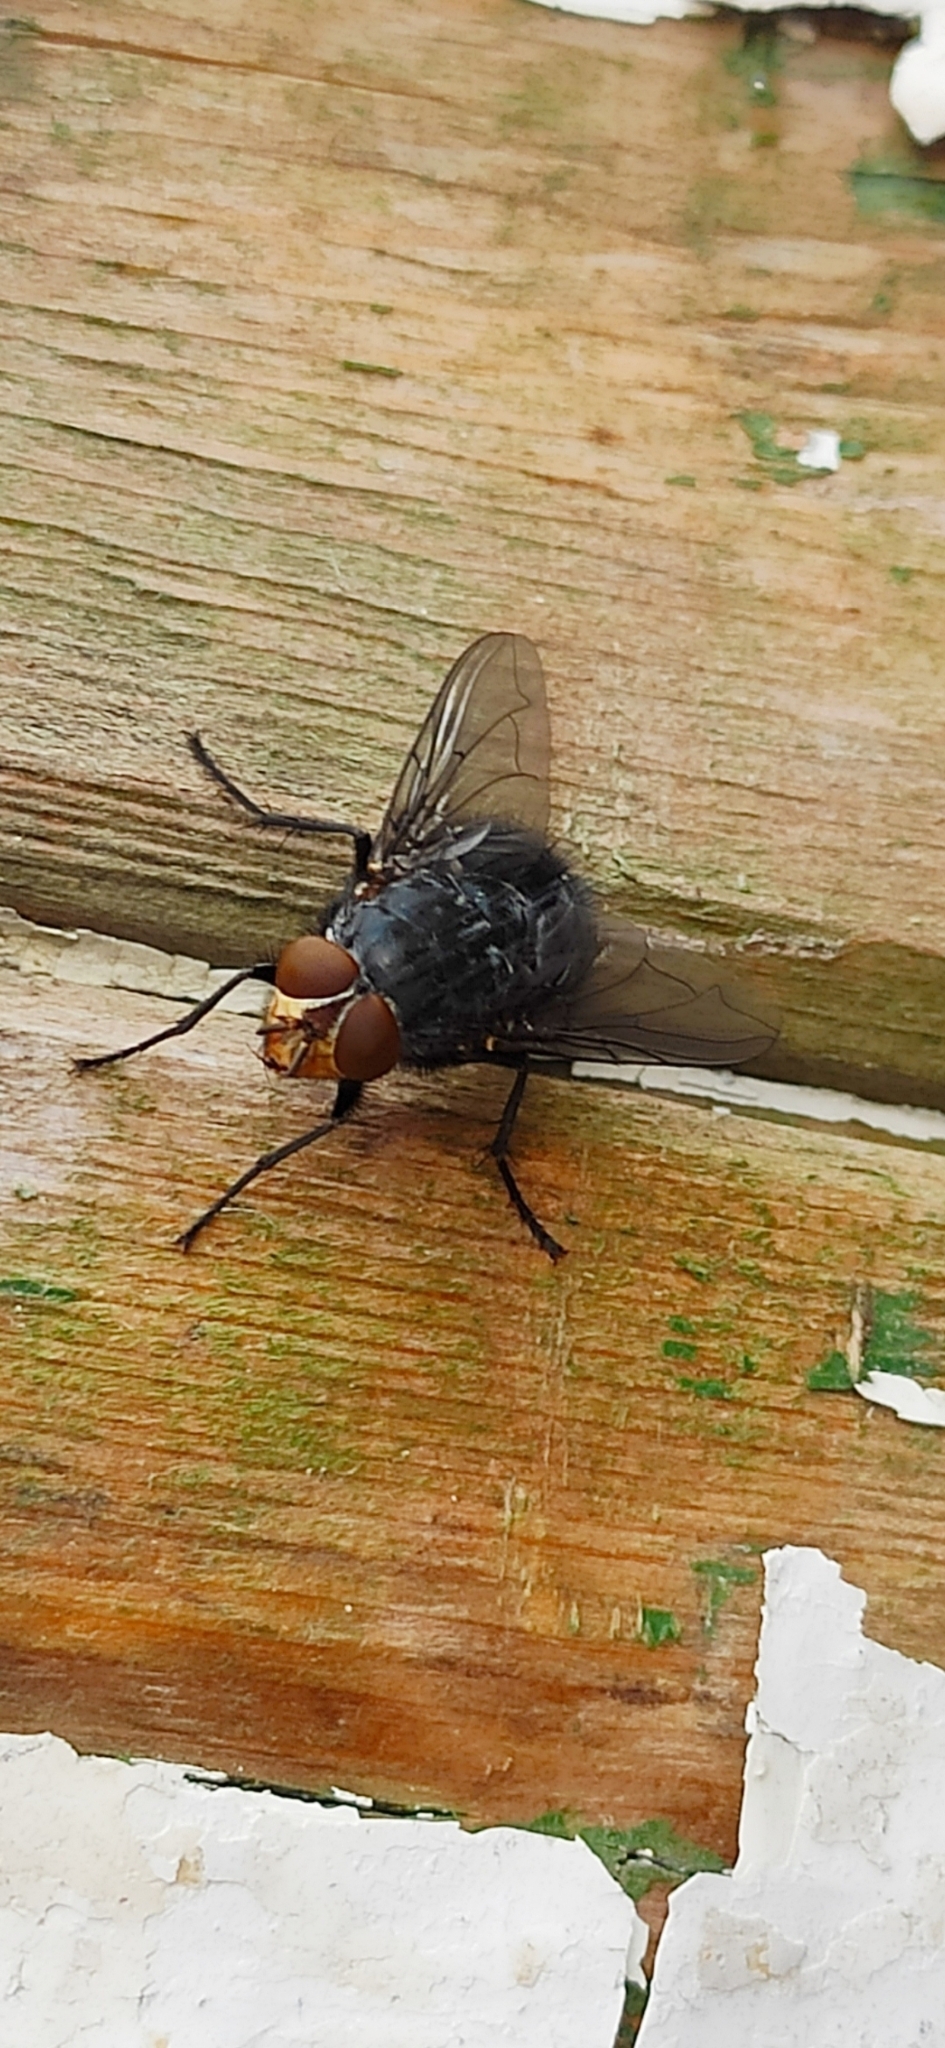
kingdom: Animalia
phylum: Arthropoda
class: Insecta
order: Diptera
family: Calliphoridae
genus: Calliphora
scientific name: Calliphora vicina
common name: Common blow flie
